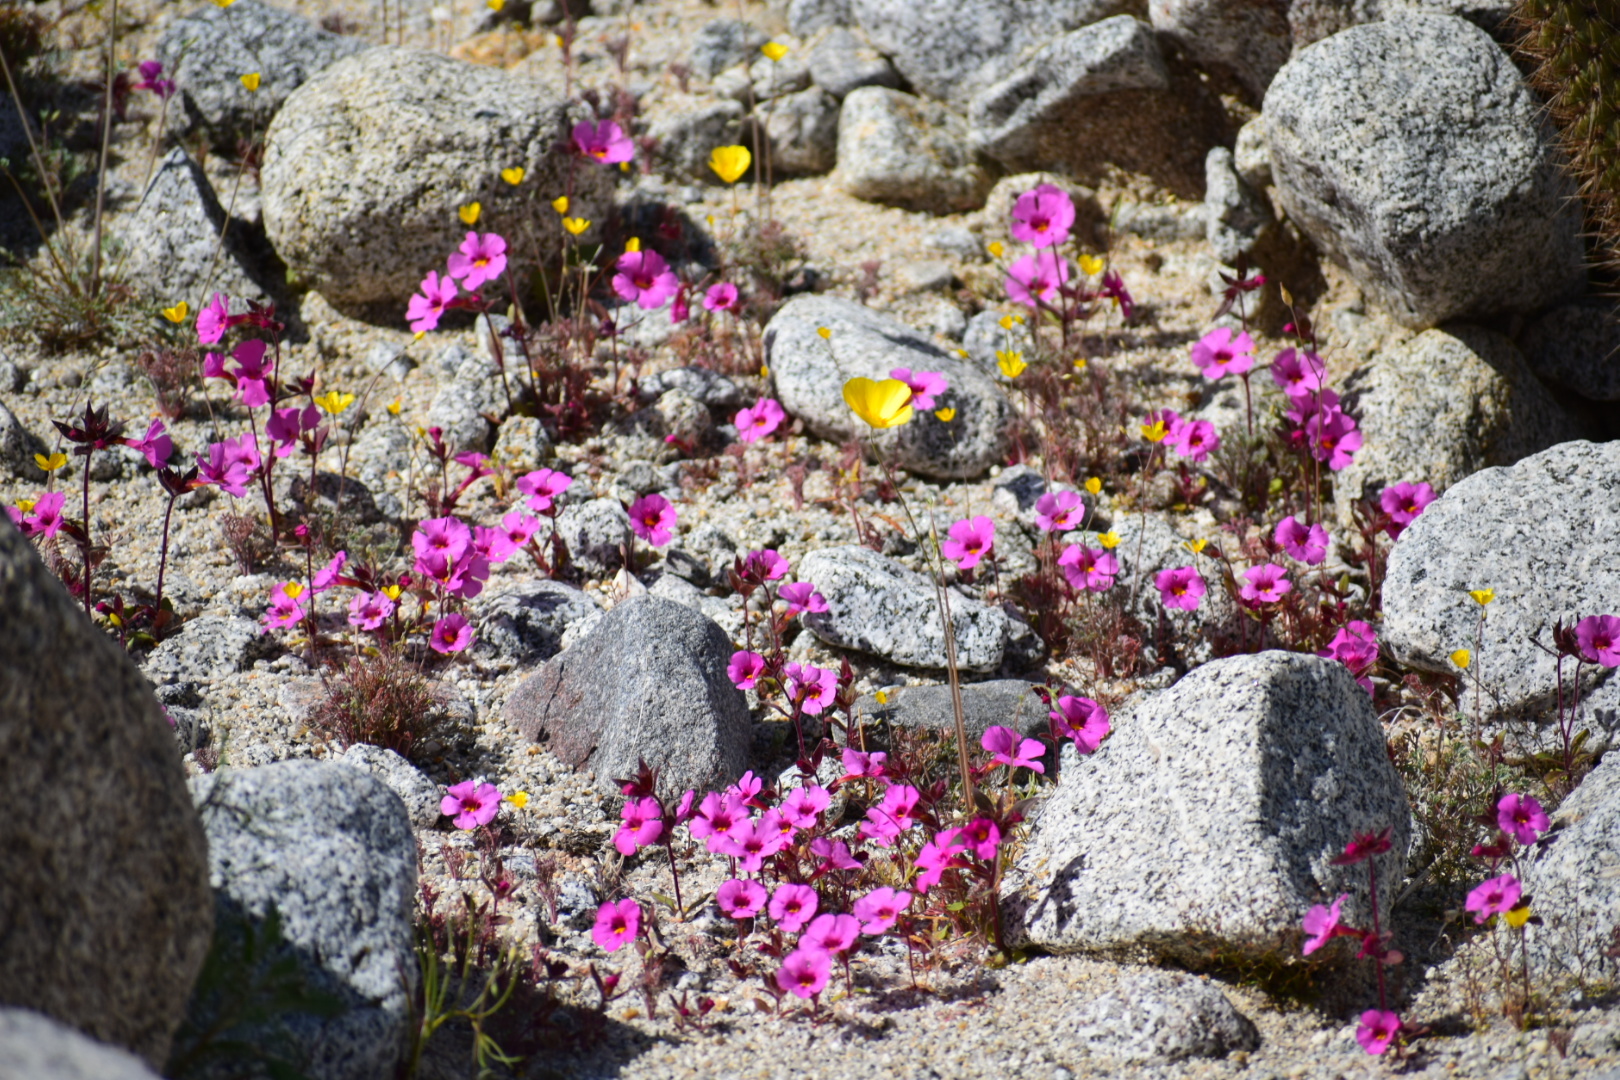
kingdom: Plantae
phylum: Tracheophyta
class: Magnoliopsida
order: Lamiales
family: Phrymaceae
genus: Diplacus
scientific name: Diplacus bigelovii
